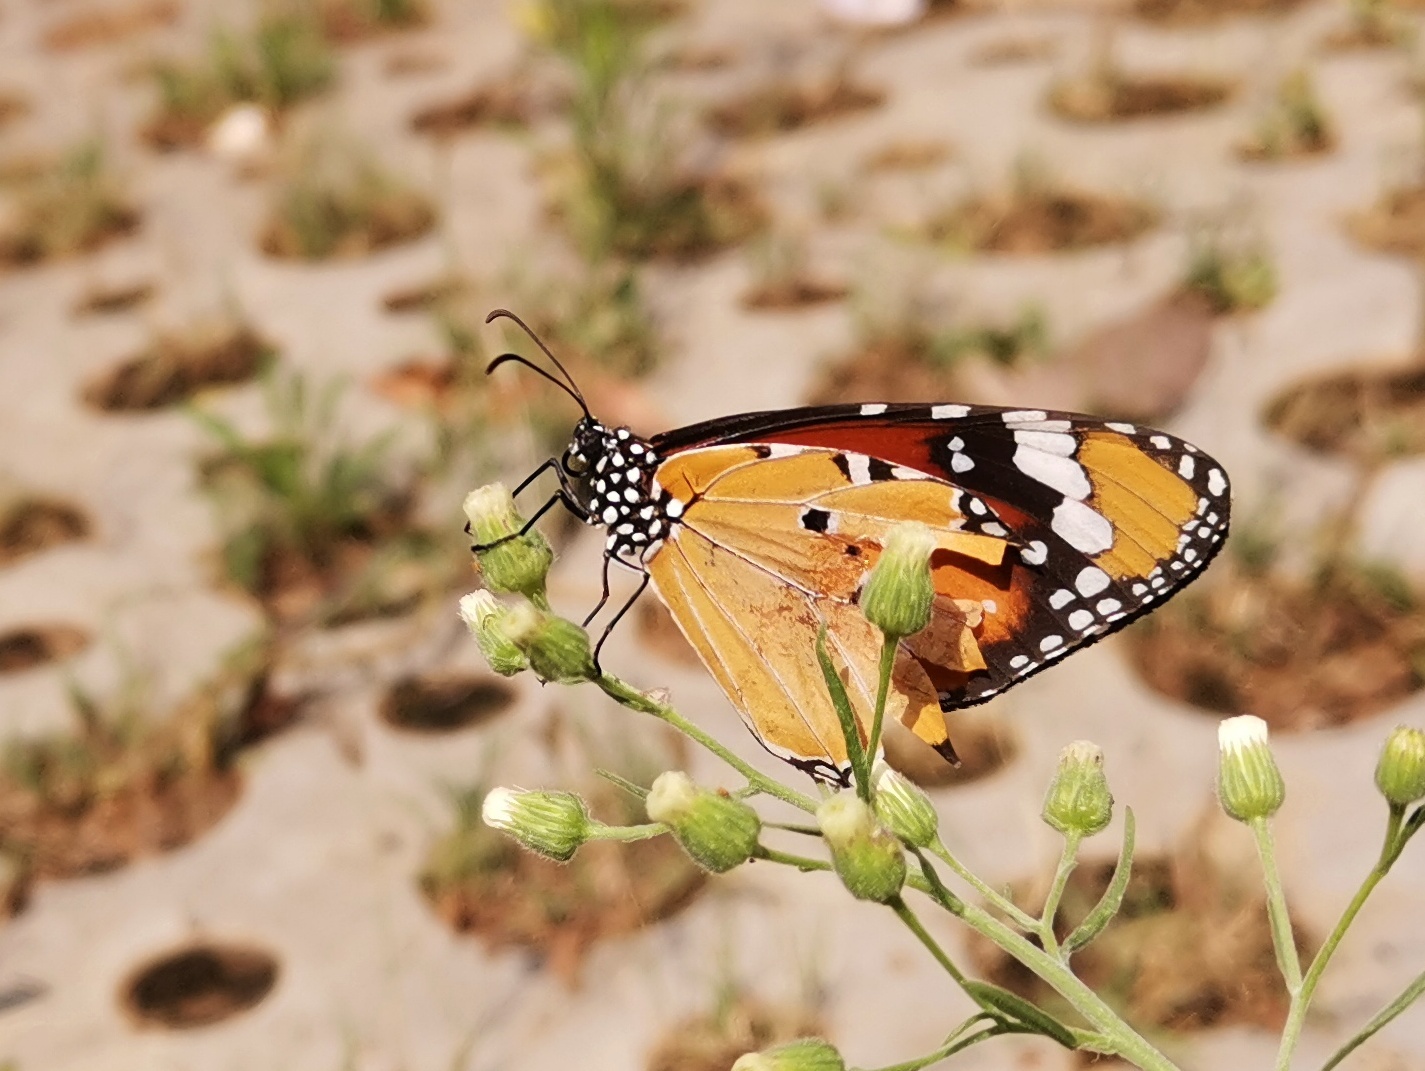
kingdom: Animalia
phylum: Arthropoda
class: Insecta
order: Lepidoptera
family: Nymphalidae
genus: Danaus
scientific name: Danaus chrysippus
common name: Plain tiger
